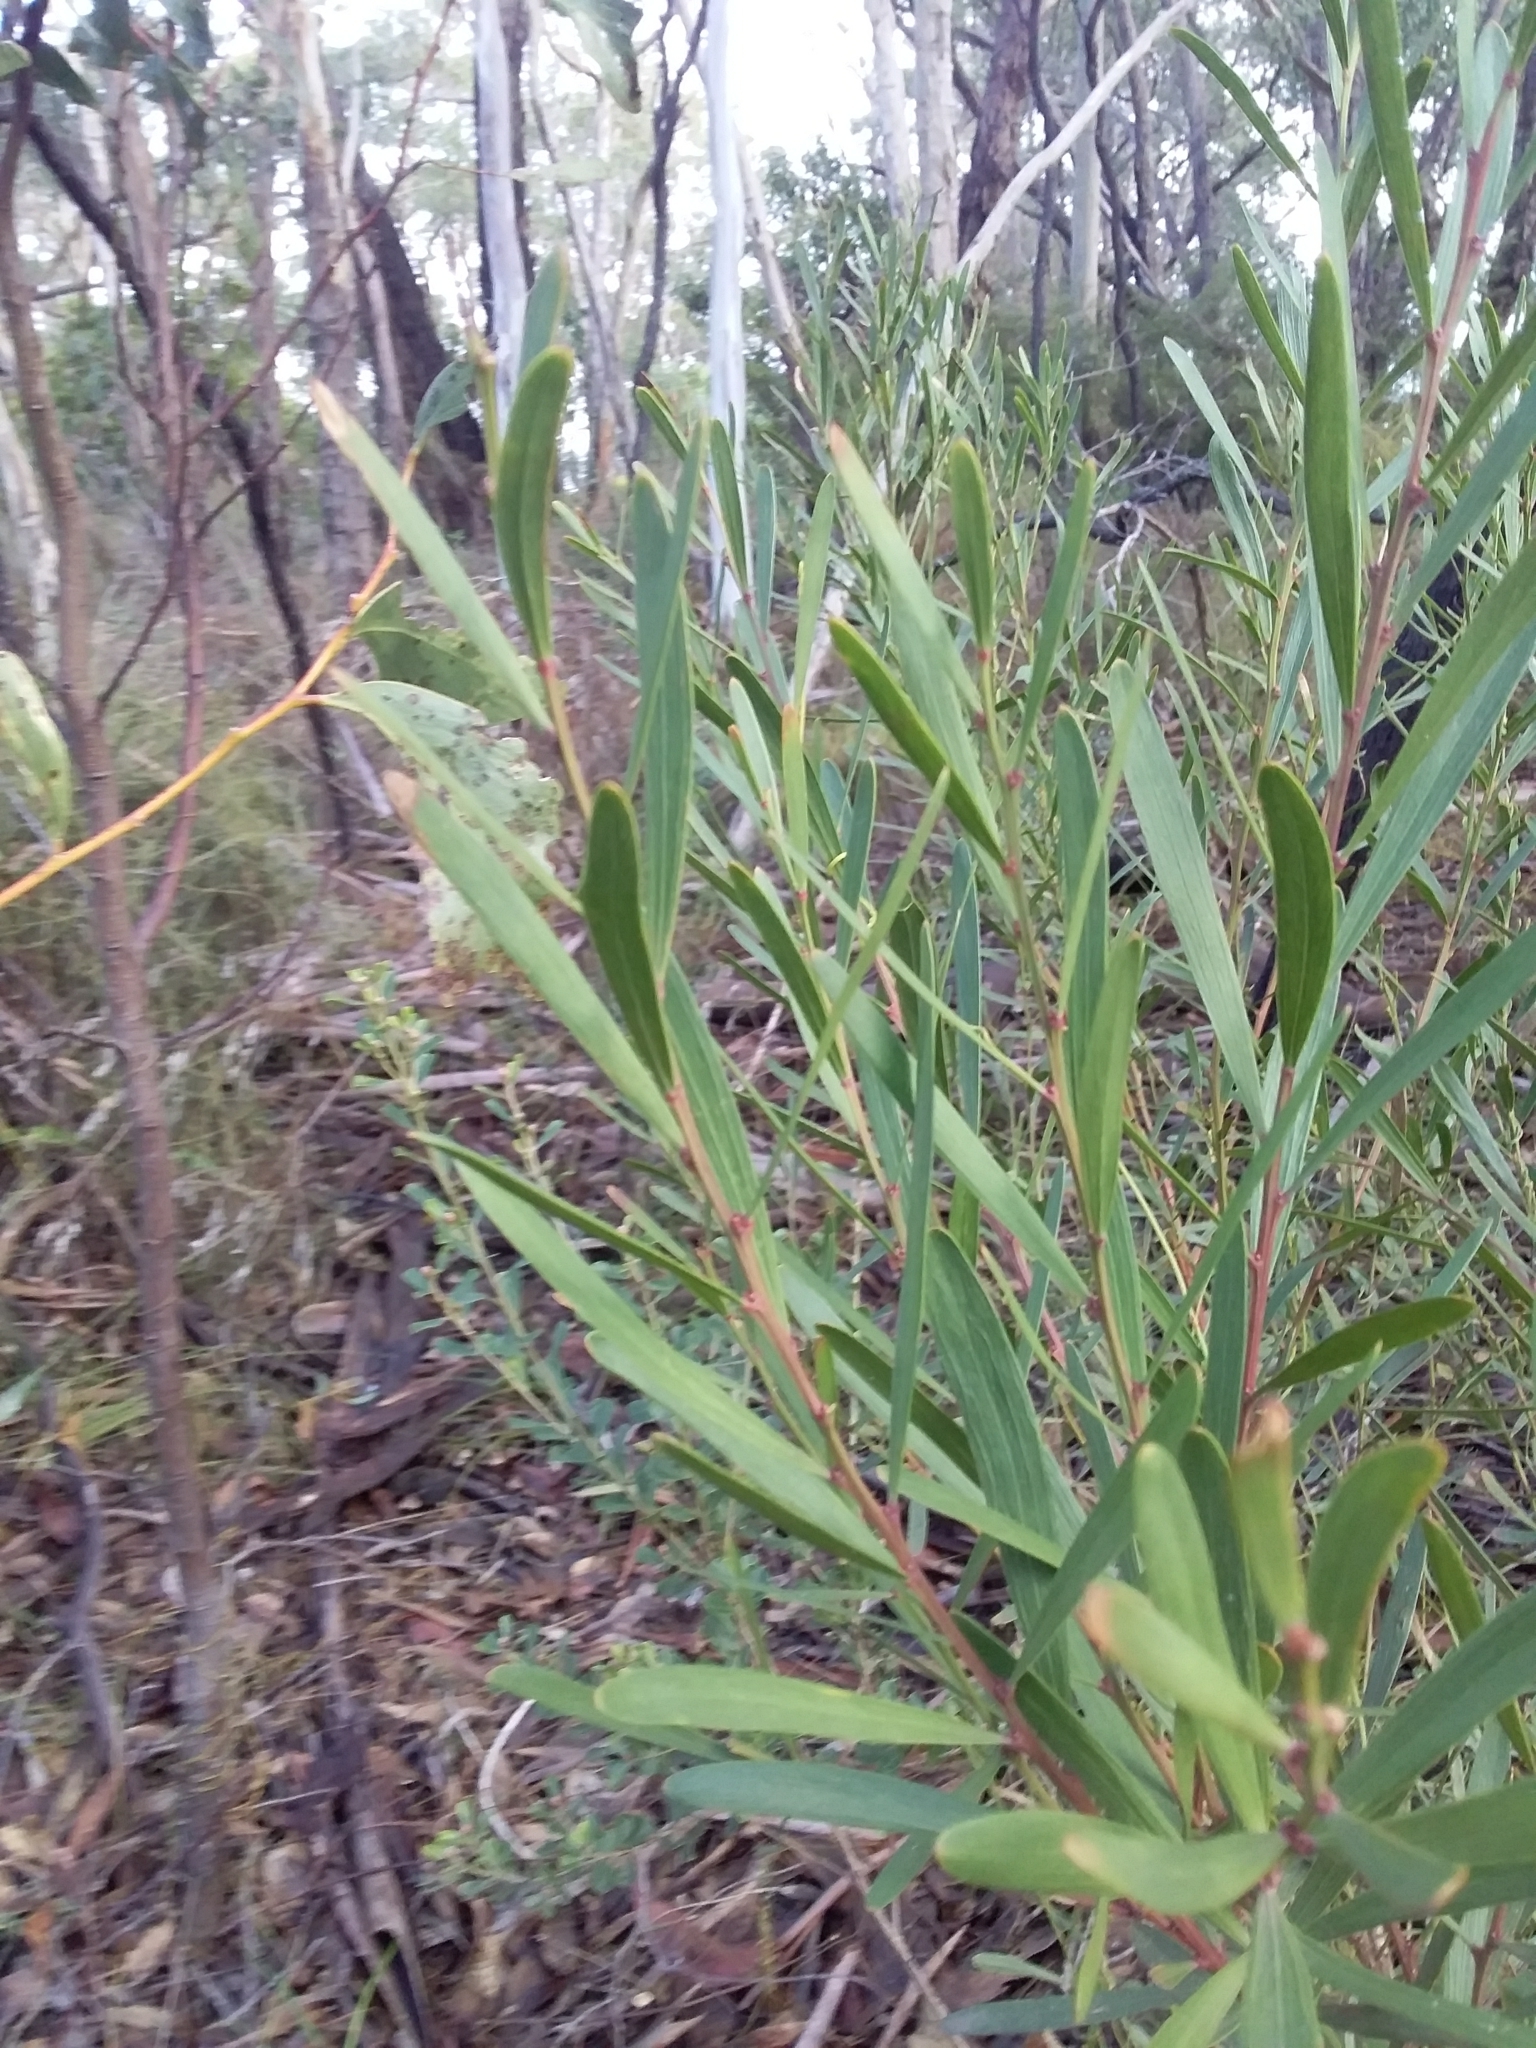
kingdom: Plantae
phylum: Tracheophyta
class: Magnoliopsida
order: Fabales
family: Fabaceae
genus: Daviesia
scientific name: Daviesia leptophylla
